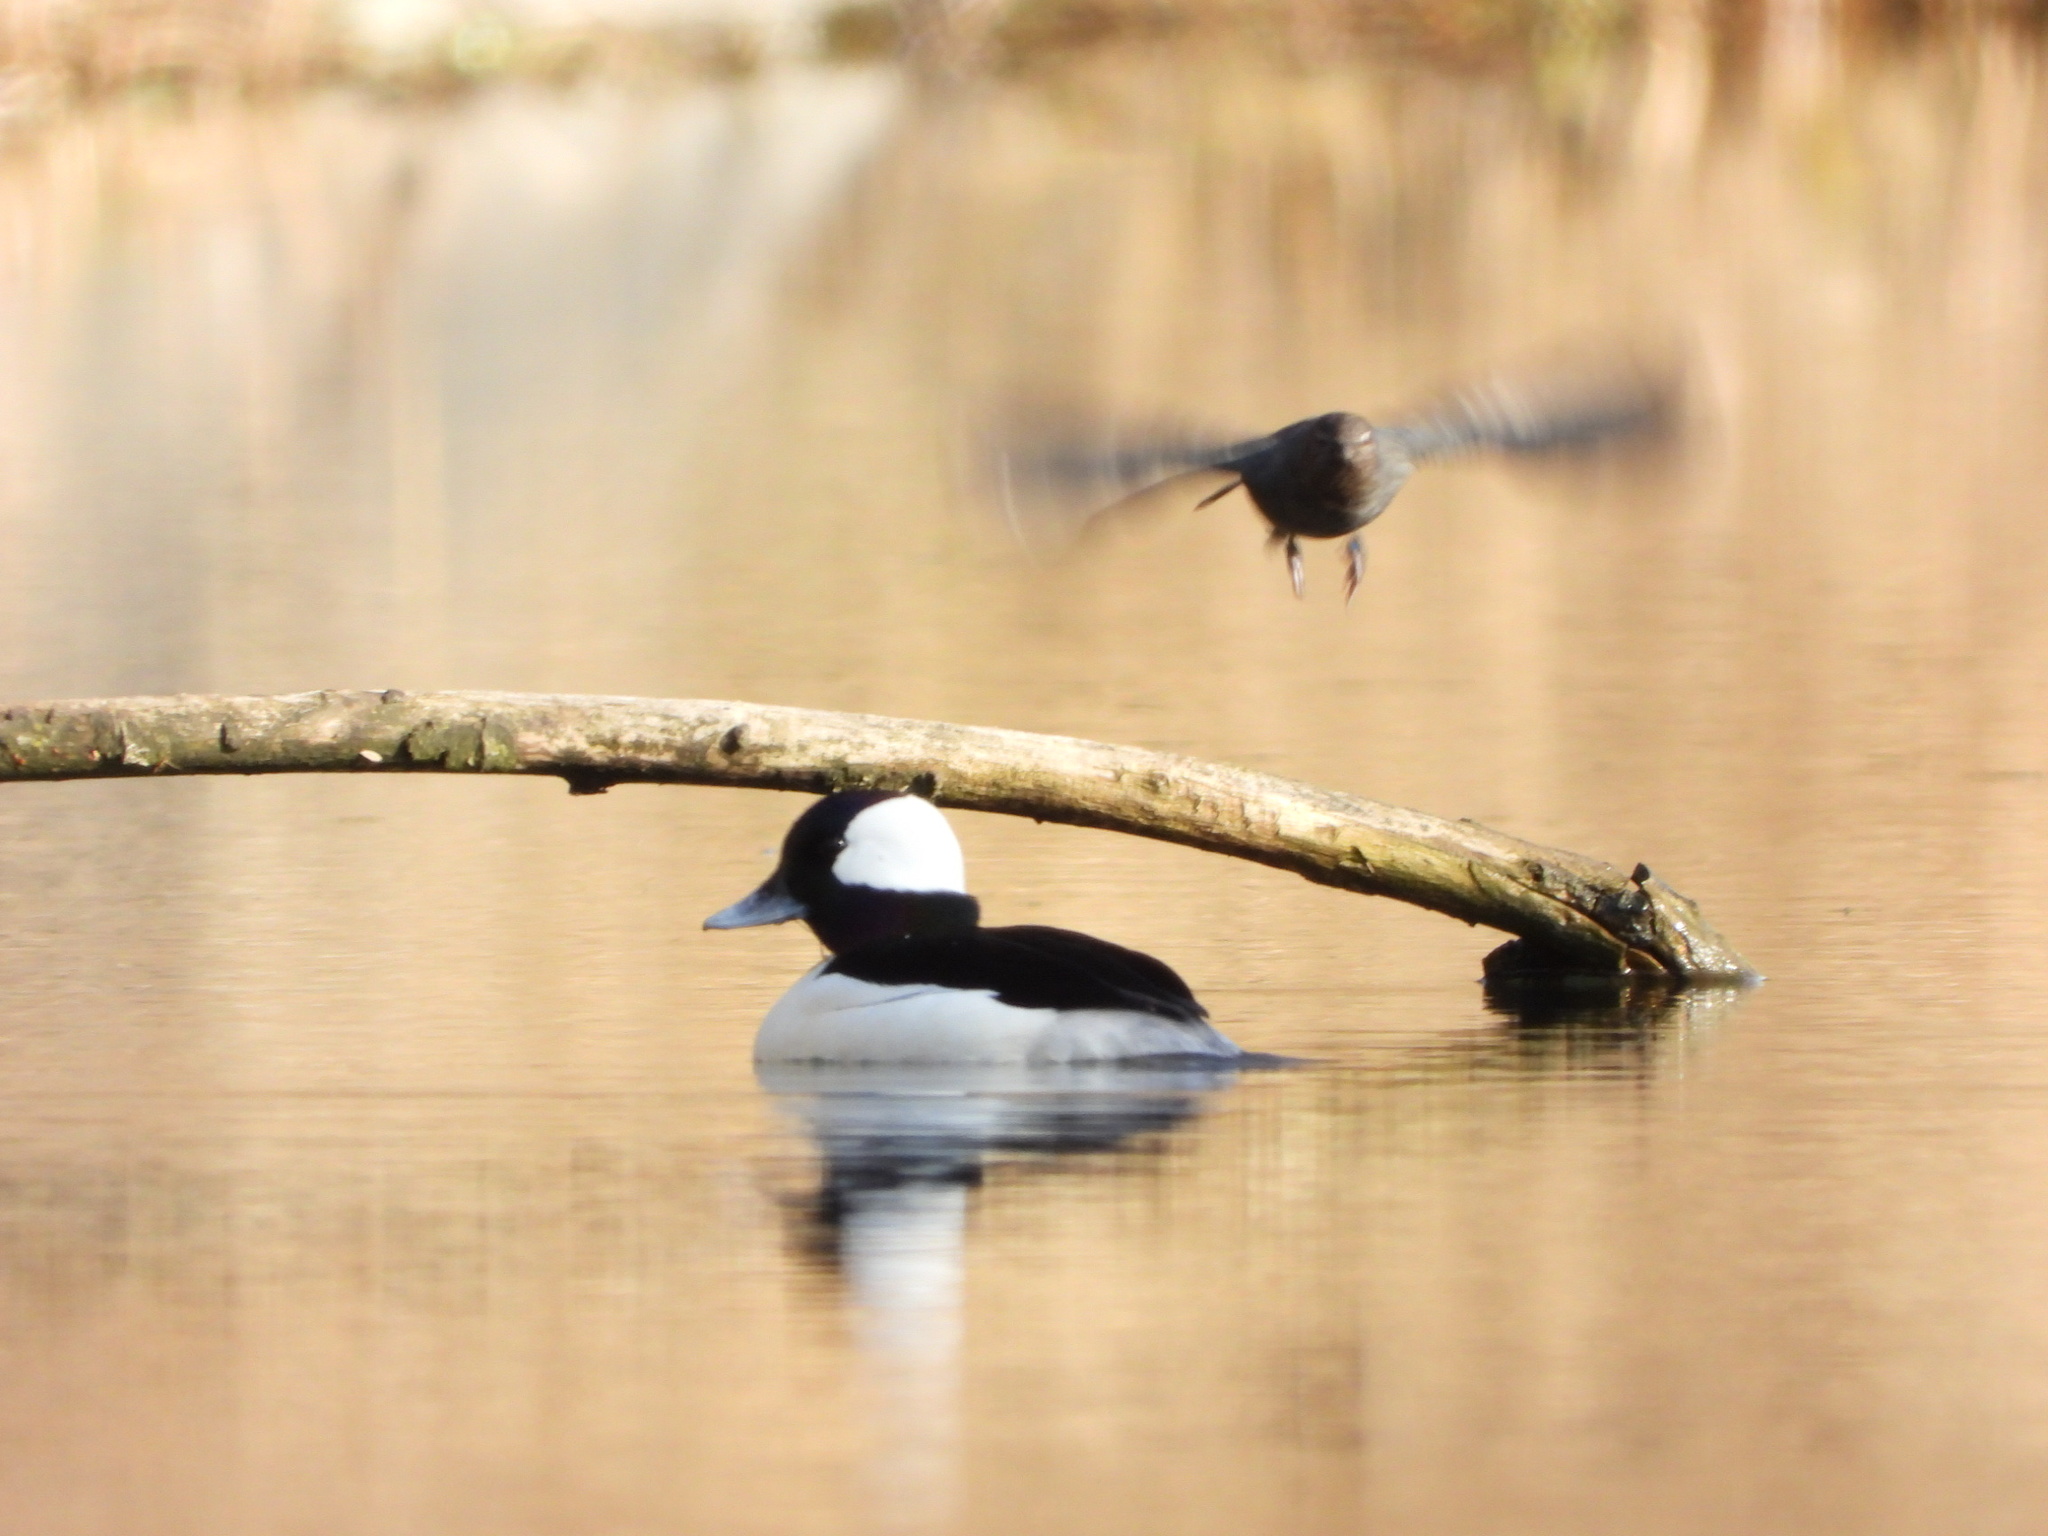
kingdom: Animalia
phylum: Chordata
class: Aves
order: Anseriformes
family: Anatidae
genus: Bucephala
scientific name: Bucephala albeola
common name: Bufflehead
